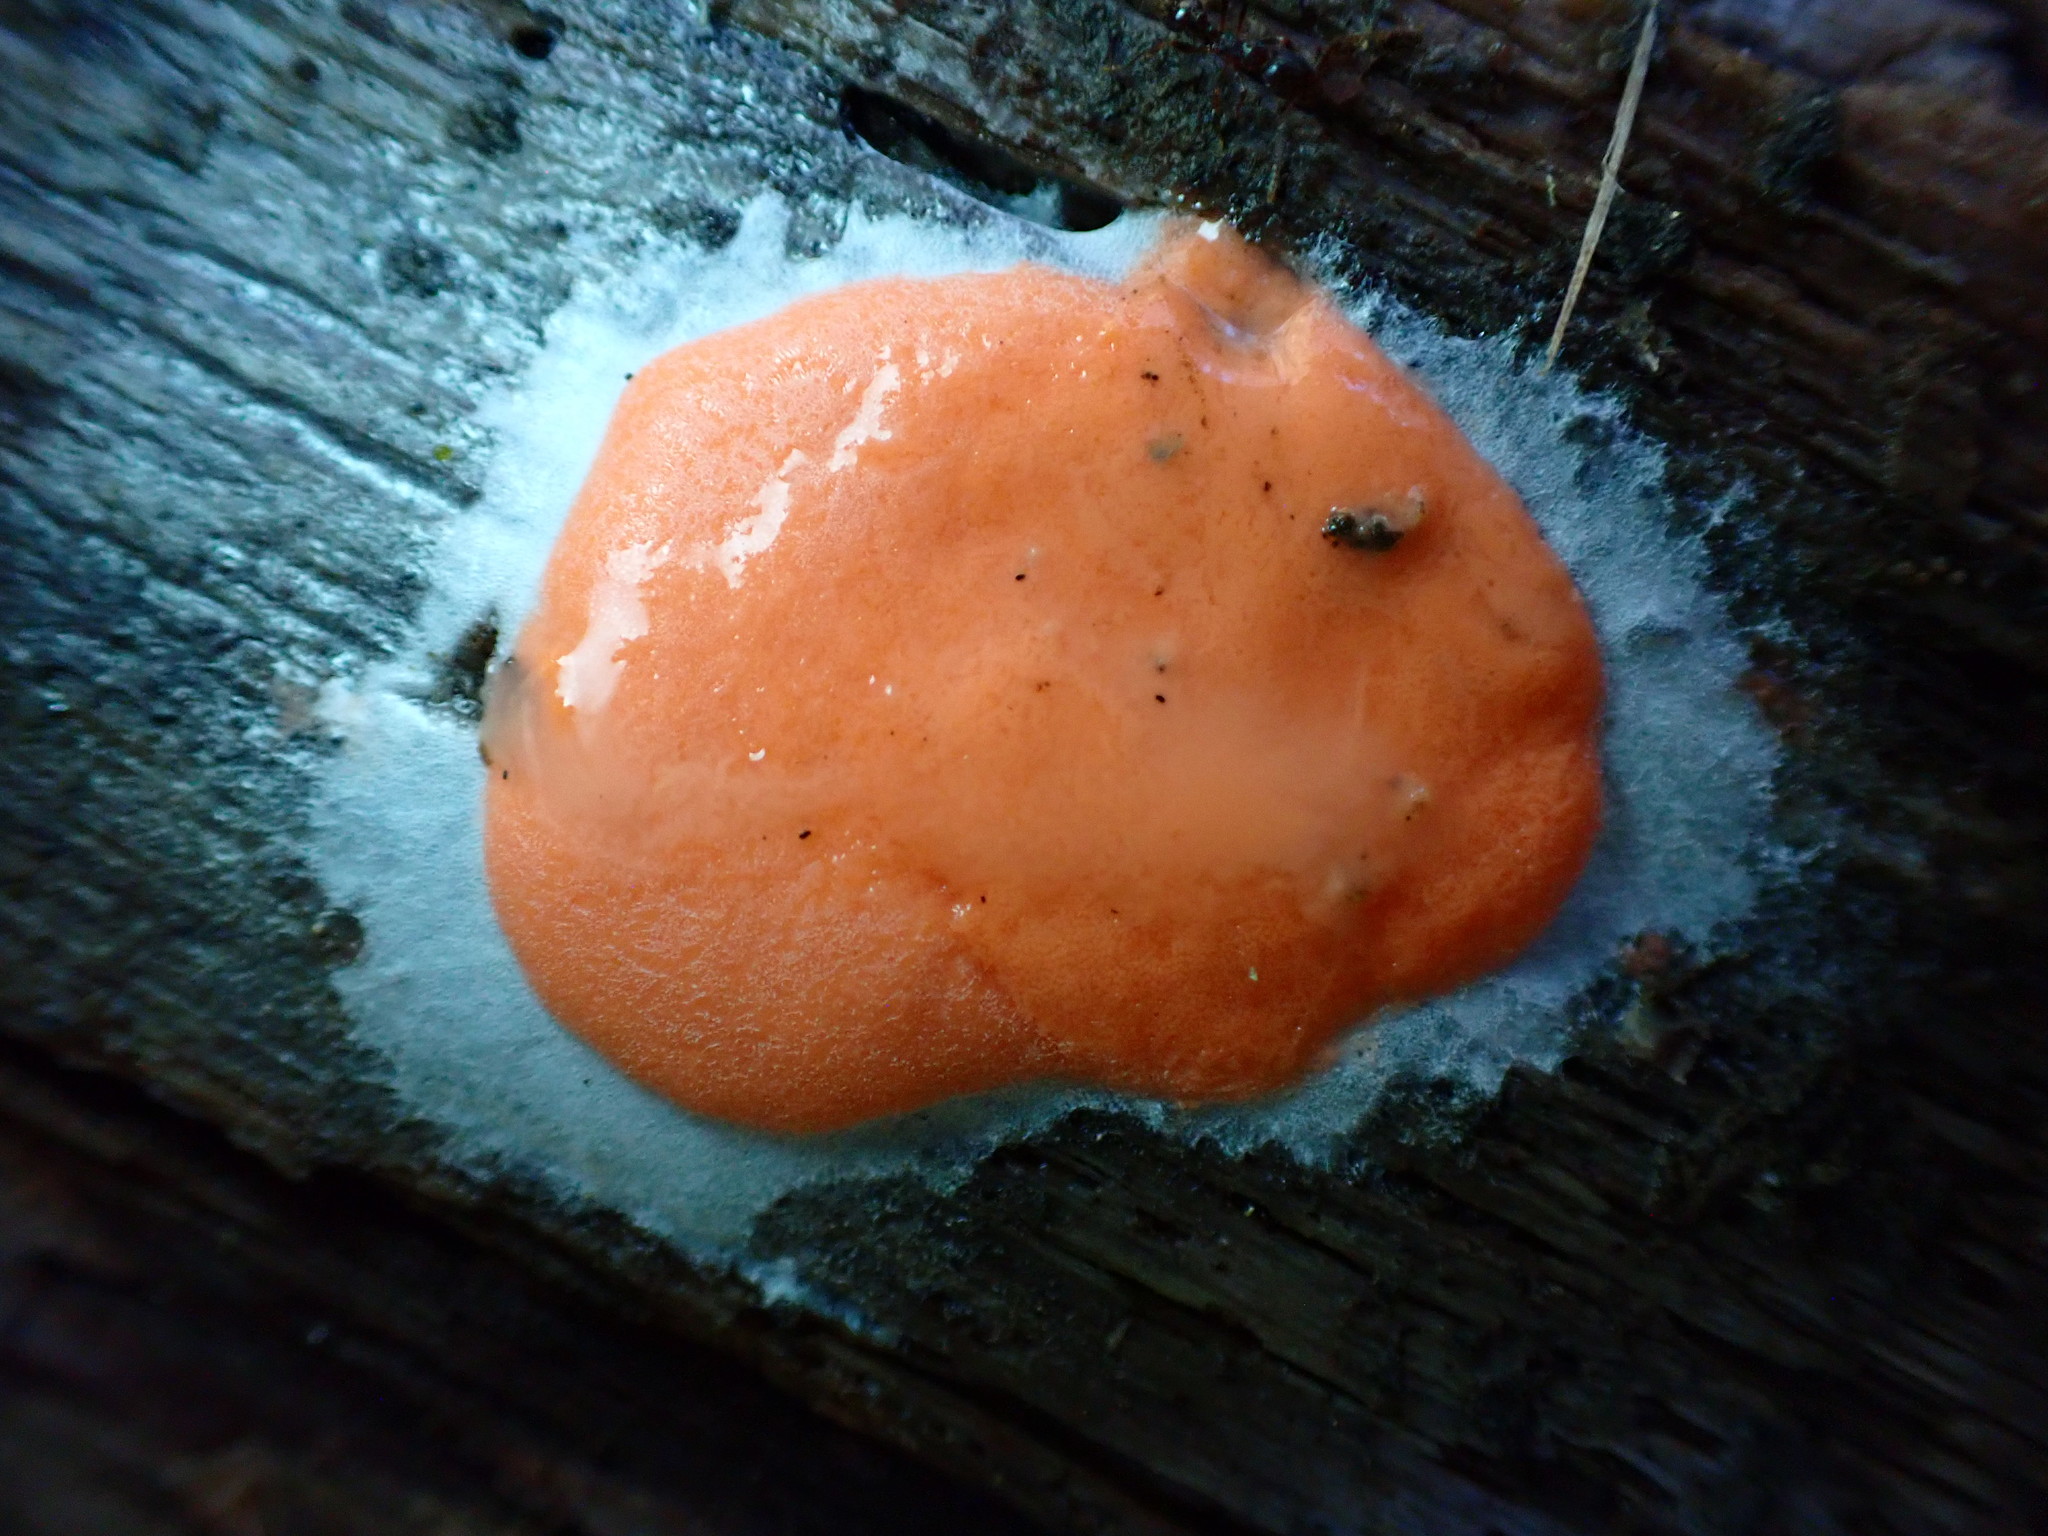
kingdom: Protozoa
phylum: Mycetozoa
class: Myxomycetes
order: Trichiales
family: Dictydiaethaliaceae
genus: Dictydiaethalium
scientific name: Dictydiaethalium plumbeum
